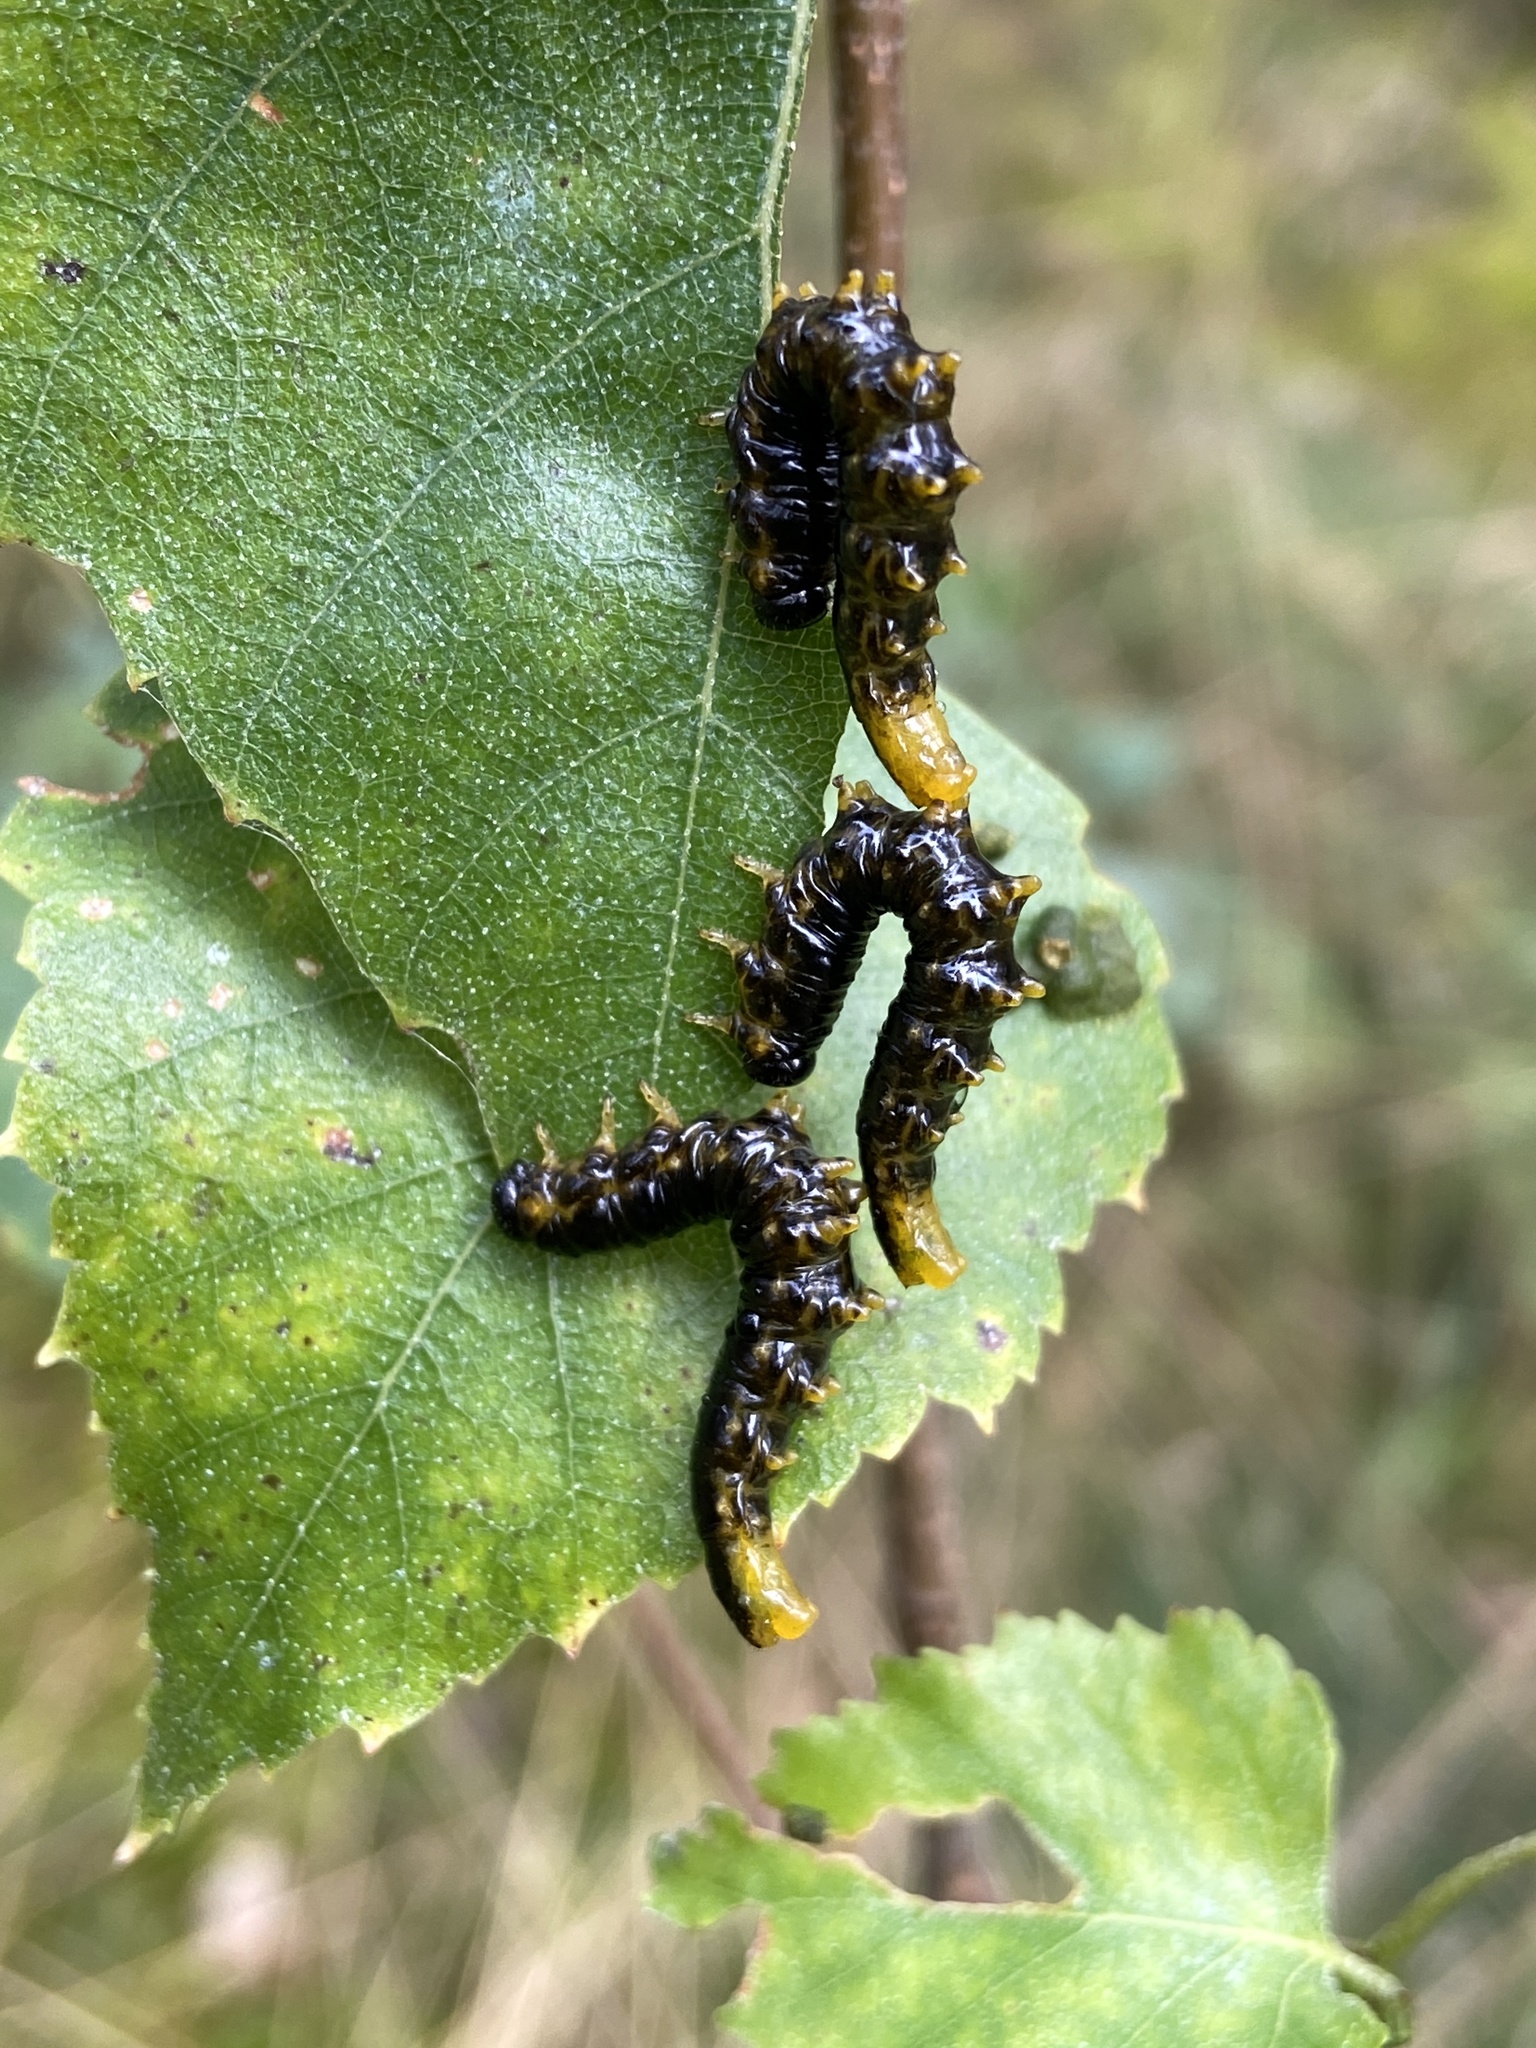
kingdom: Animalia
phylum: Arthropoda
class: Insecta
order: Hymenoptera
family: Tenthredinidae
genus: Craesus
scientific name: Craesus latipes
